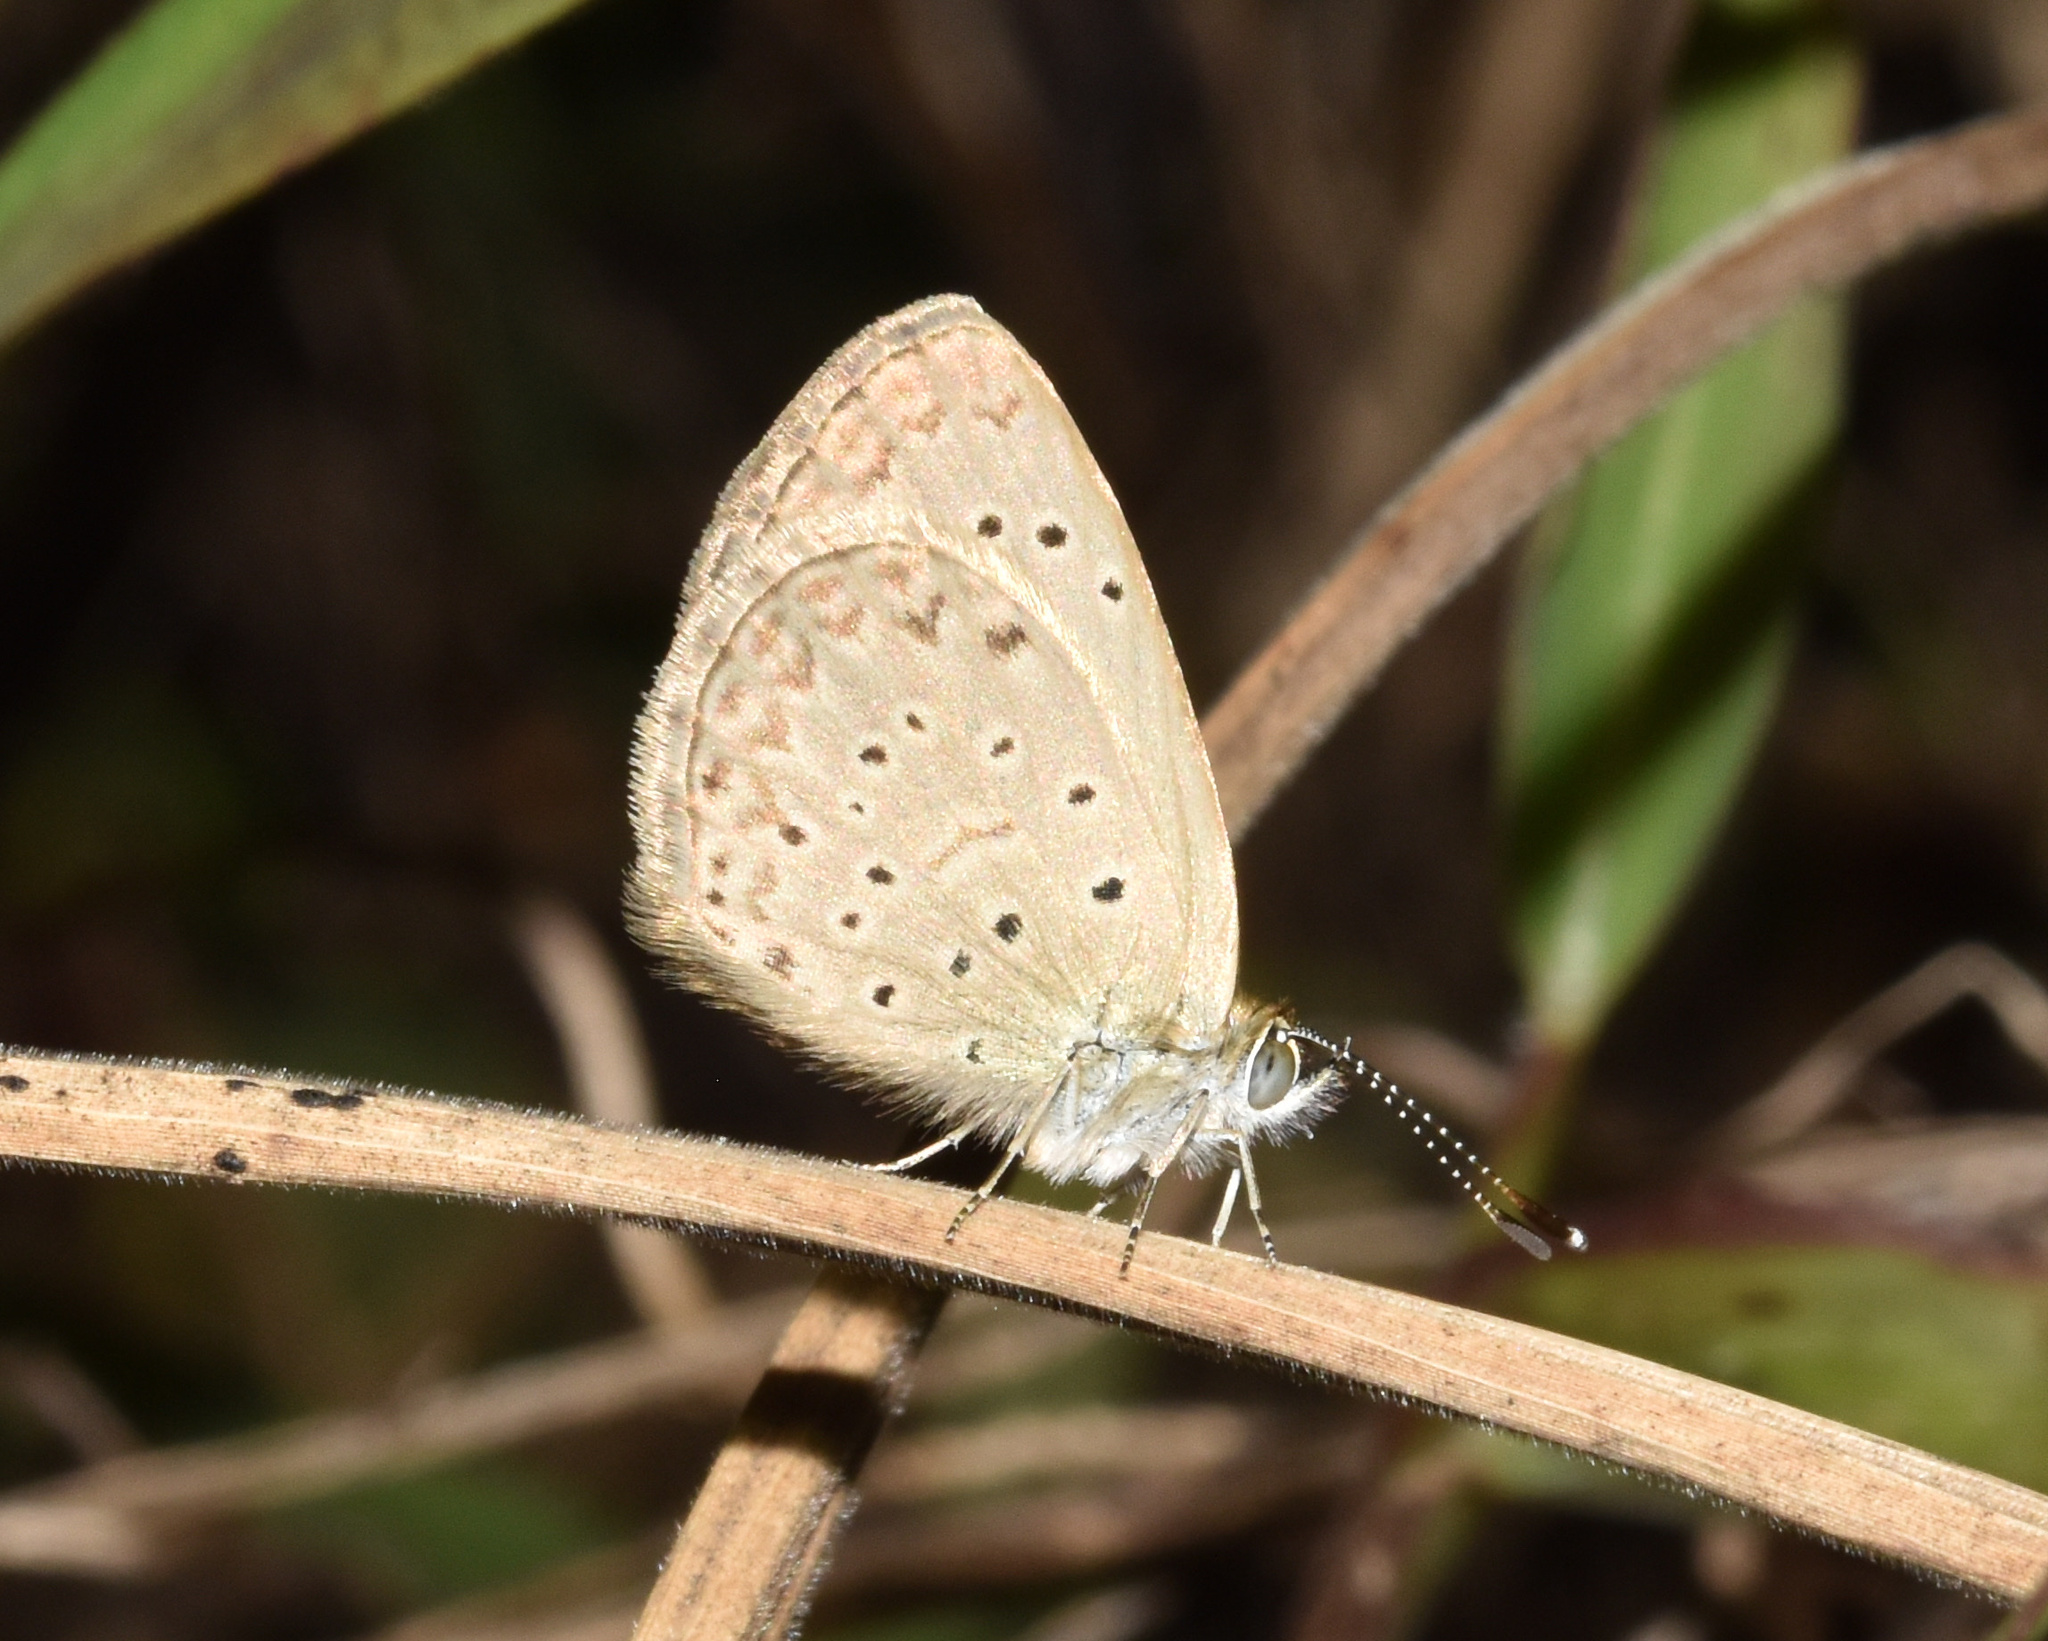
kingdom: Animalia
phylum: Arthropoda
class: Insecta
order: Lepidoptera
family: Lycaenidae
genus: Zizeeria
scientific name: Zizeeria knysna
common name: African grass blue
